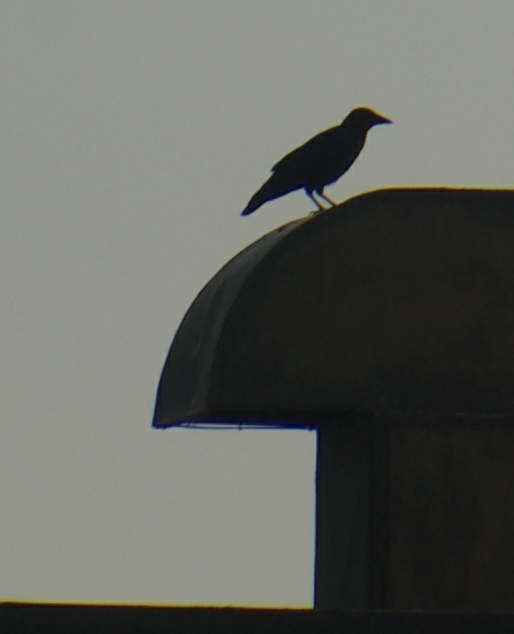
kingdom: Animalia
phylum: Chordata
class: Aves
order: Passeriformes
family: Corvidae
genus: Corvus
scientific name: Corvus brachyrhynchos
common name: American crow
